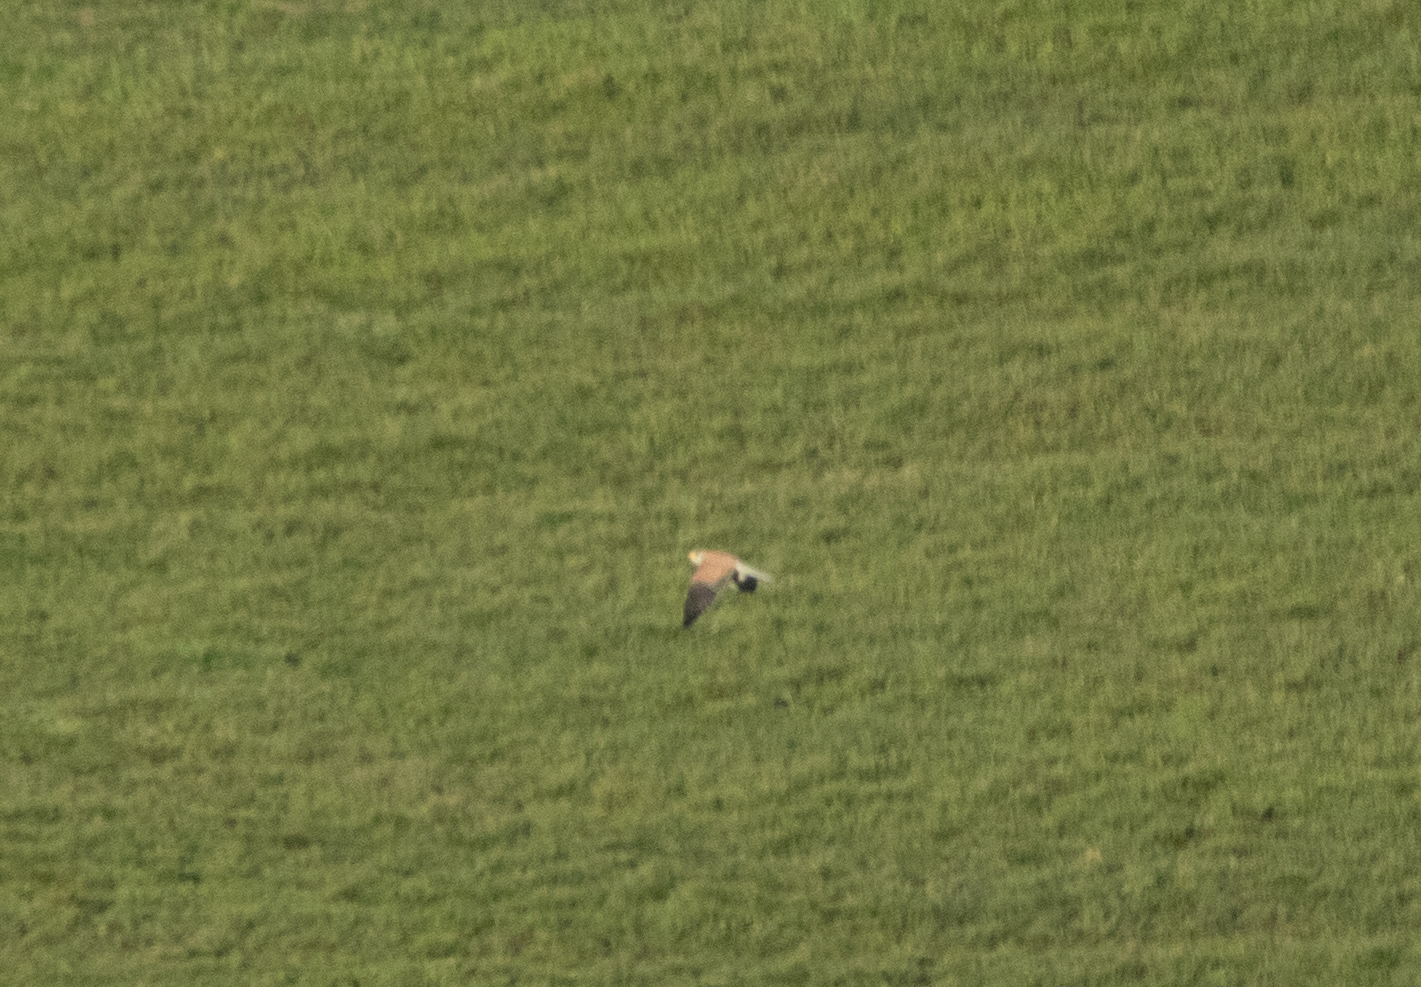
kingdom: Animalia
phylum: Chordata
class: Aves
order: Falconiformes
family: Falconidae
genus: Falco
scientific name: Falco tinnunculus
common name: Common kestrel
